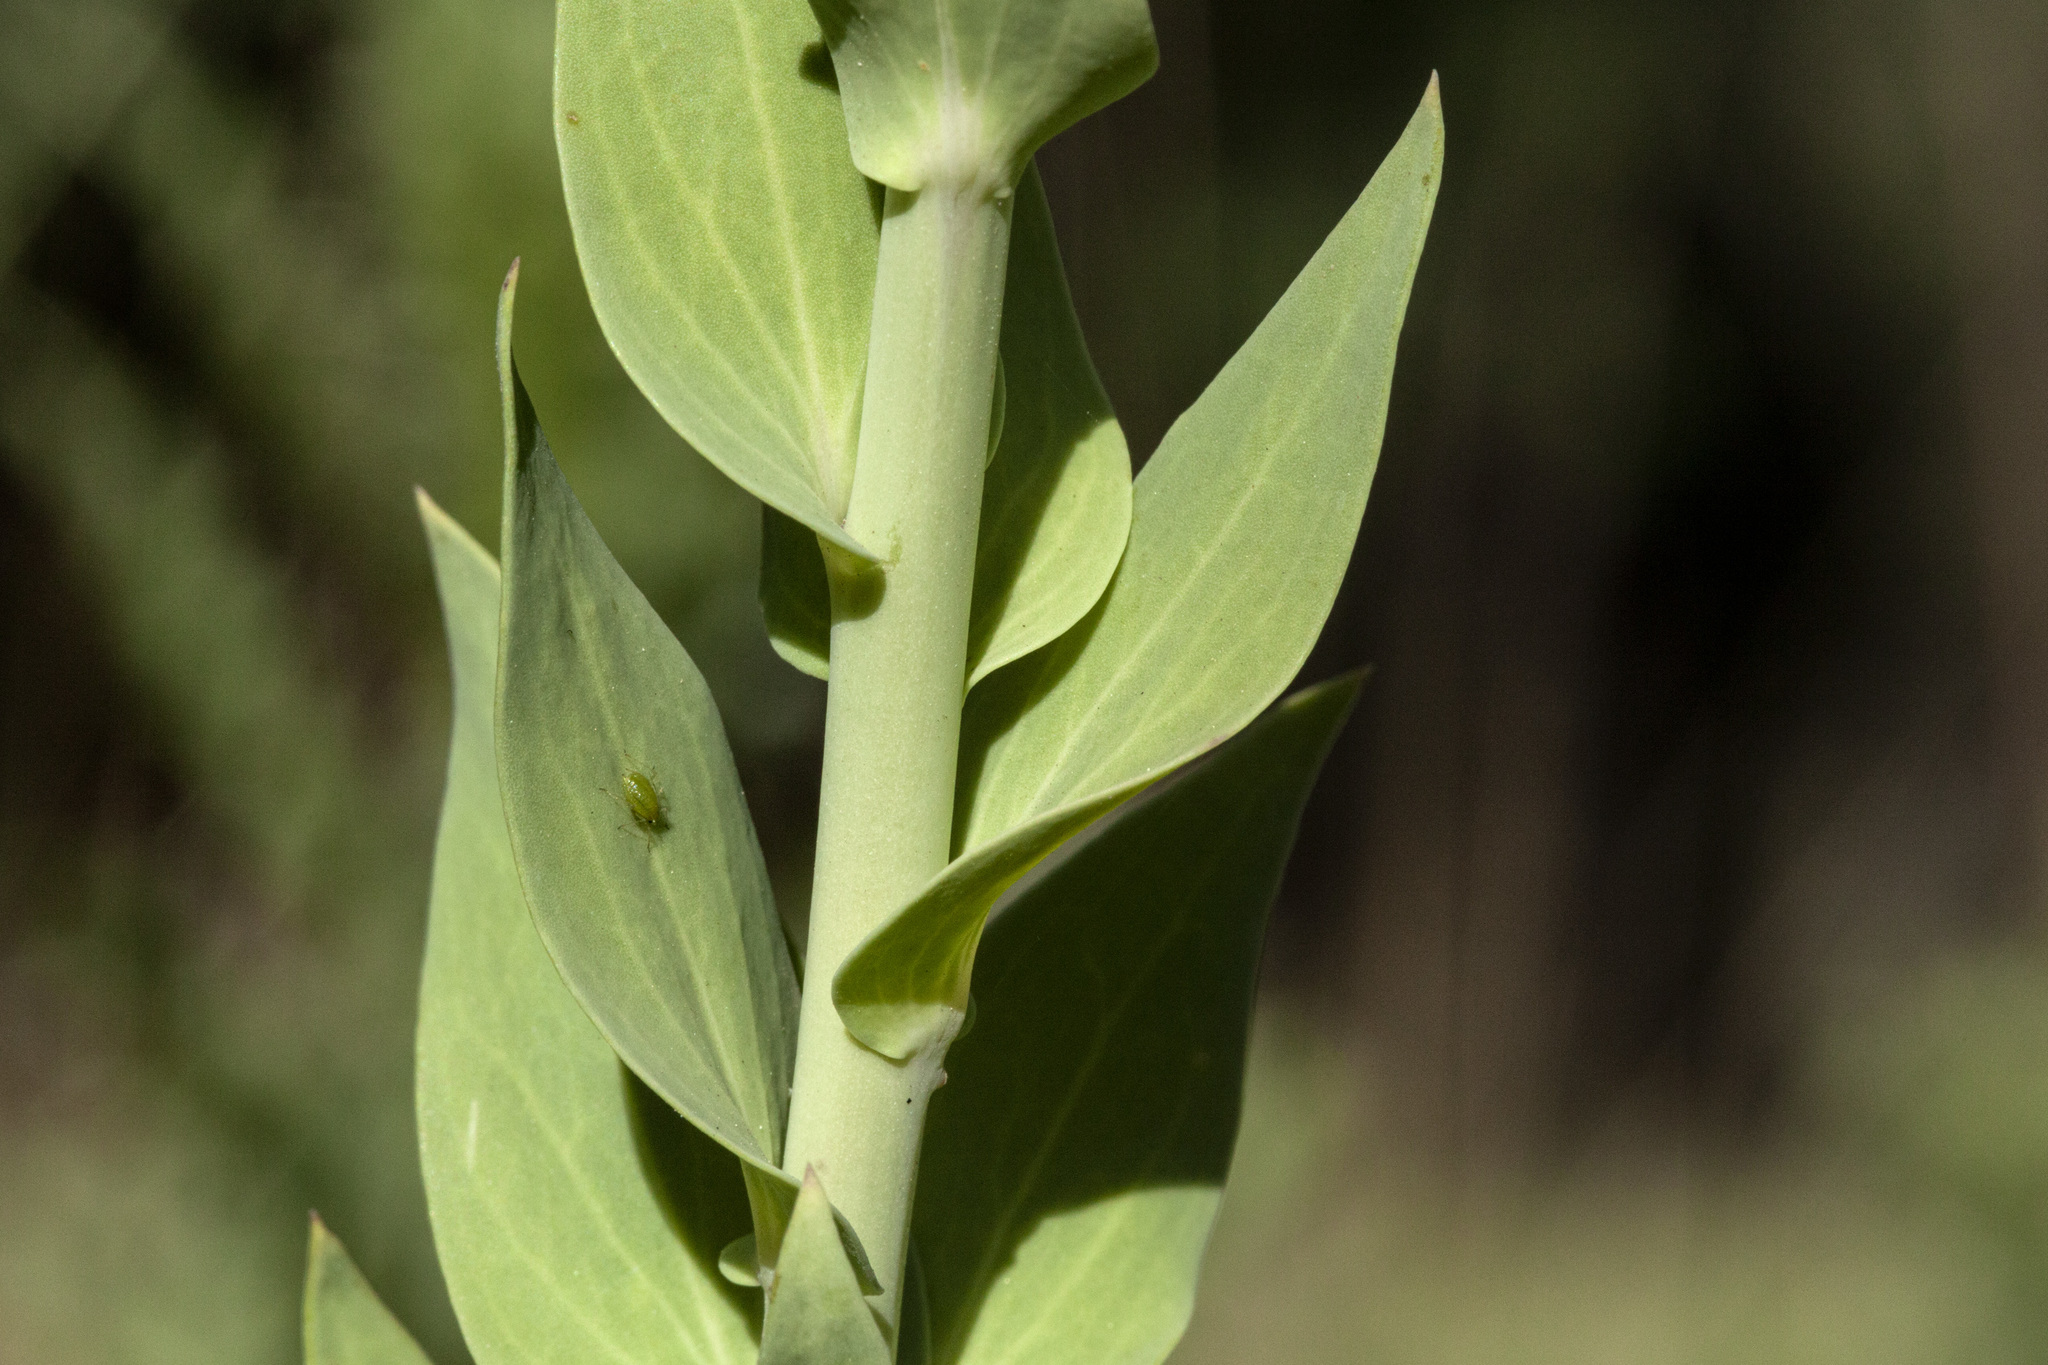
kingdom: Plantae
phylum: Tracheophyta
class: Magnoliopsida
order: Lamiales
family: Plantaginaceae
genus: Linaria
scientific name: Linaria dalmatica
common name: Dalmatian toadflax
